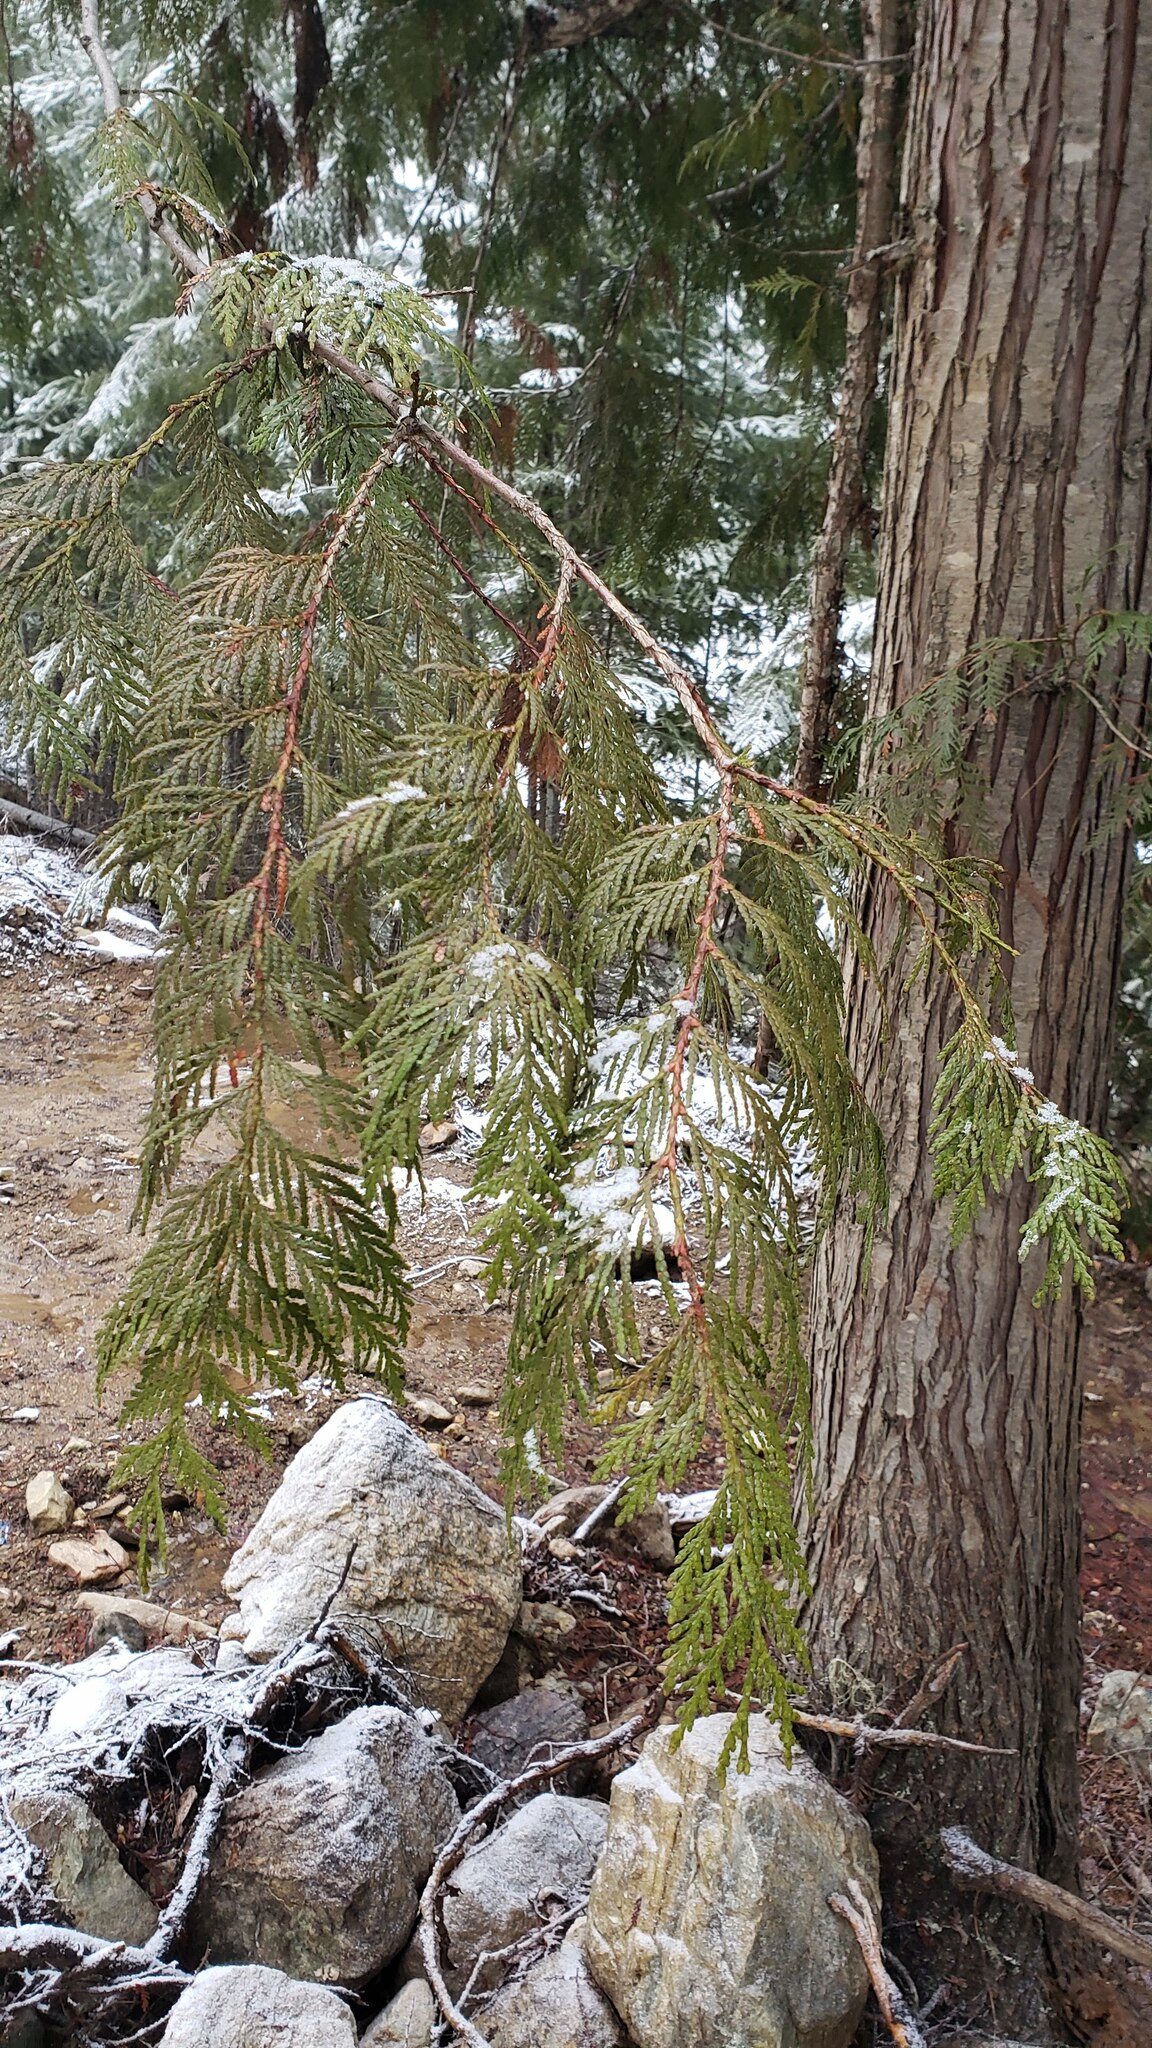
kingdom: Plantae
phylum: Tracheophyta
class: Pinopsida
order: Pinales
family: Cupressaceae
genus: Thuja
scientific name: Thuja plicata
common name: Western red-cedar
